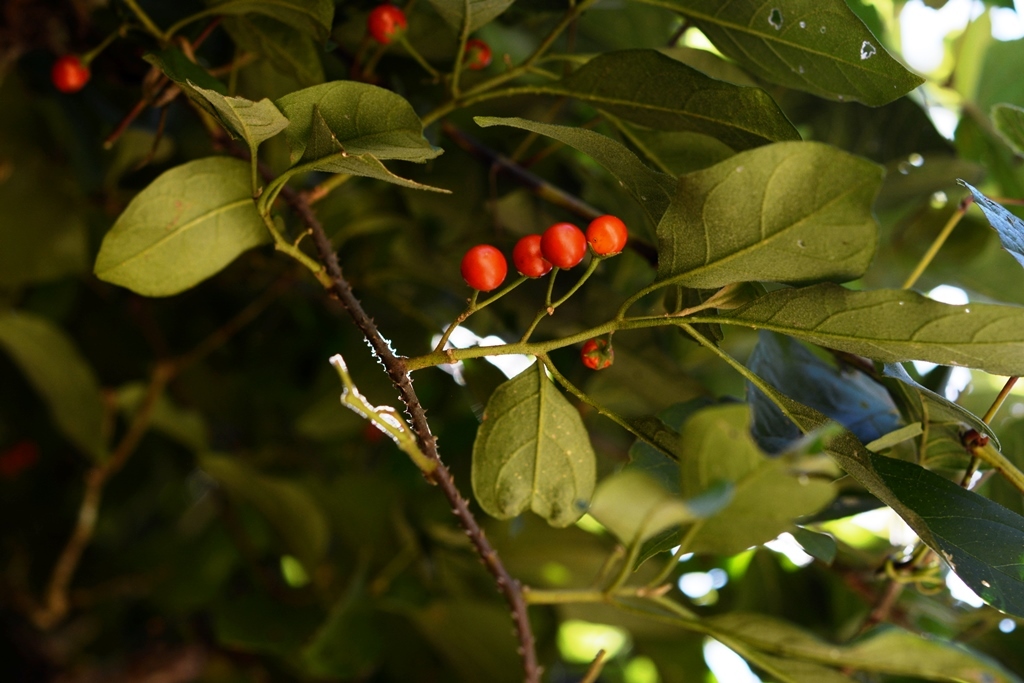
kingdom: Plantae
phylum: Tracheophyta
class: Magnoliopsida
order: Solanales
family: Solanaceae
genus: Solanum
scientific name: Solanum volubile
